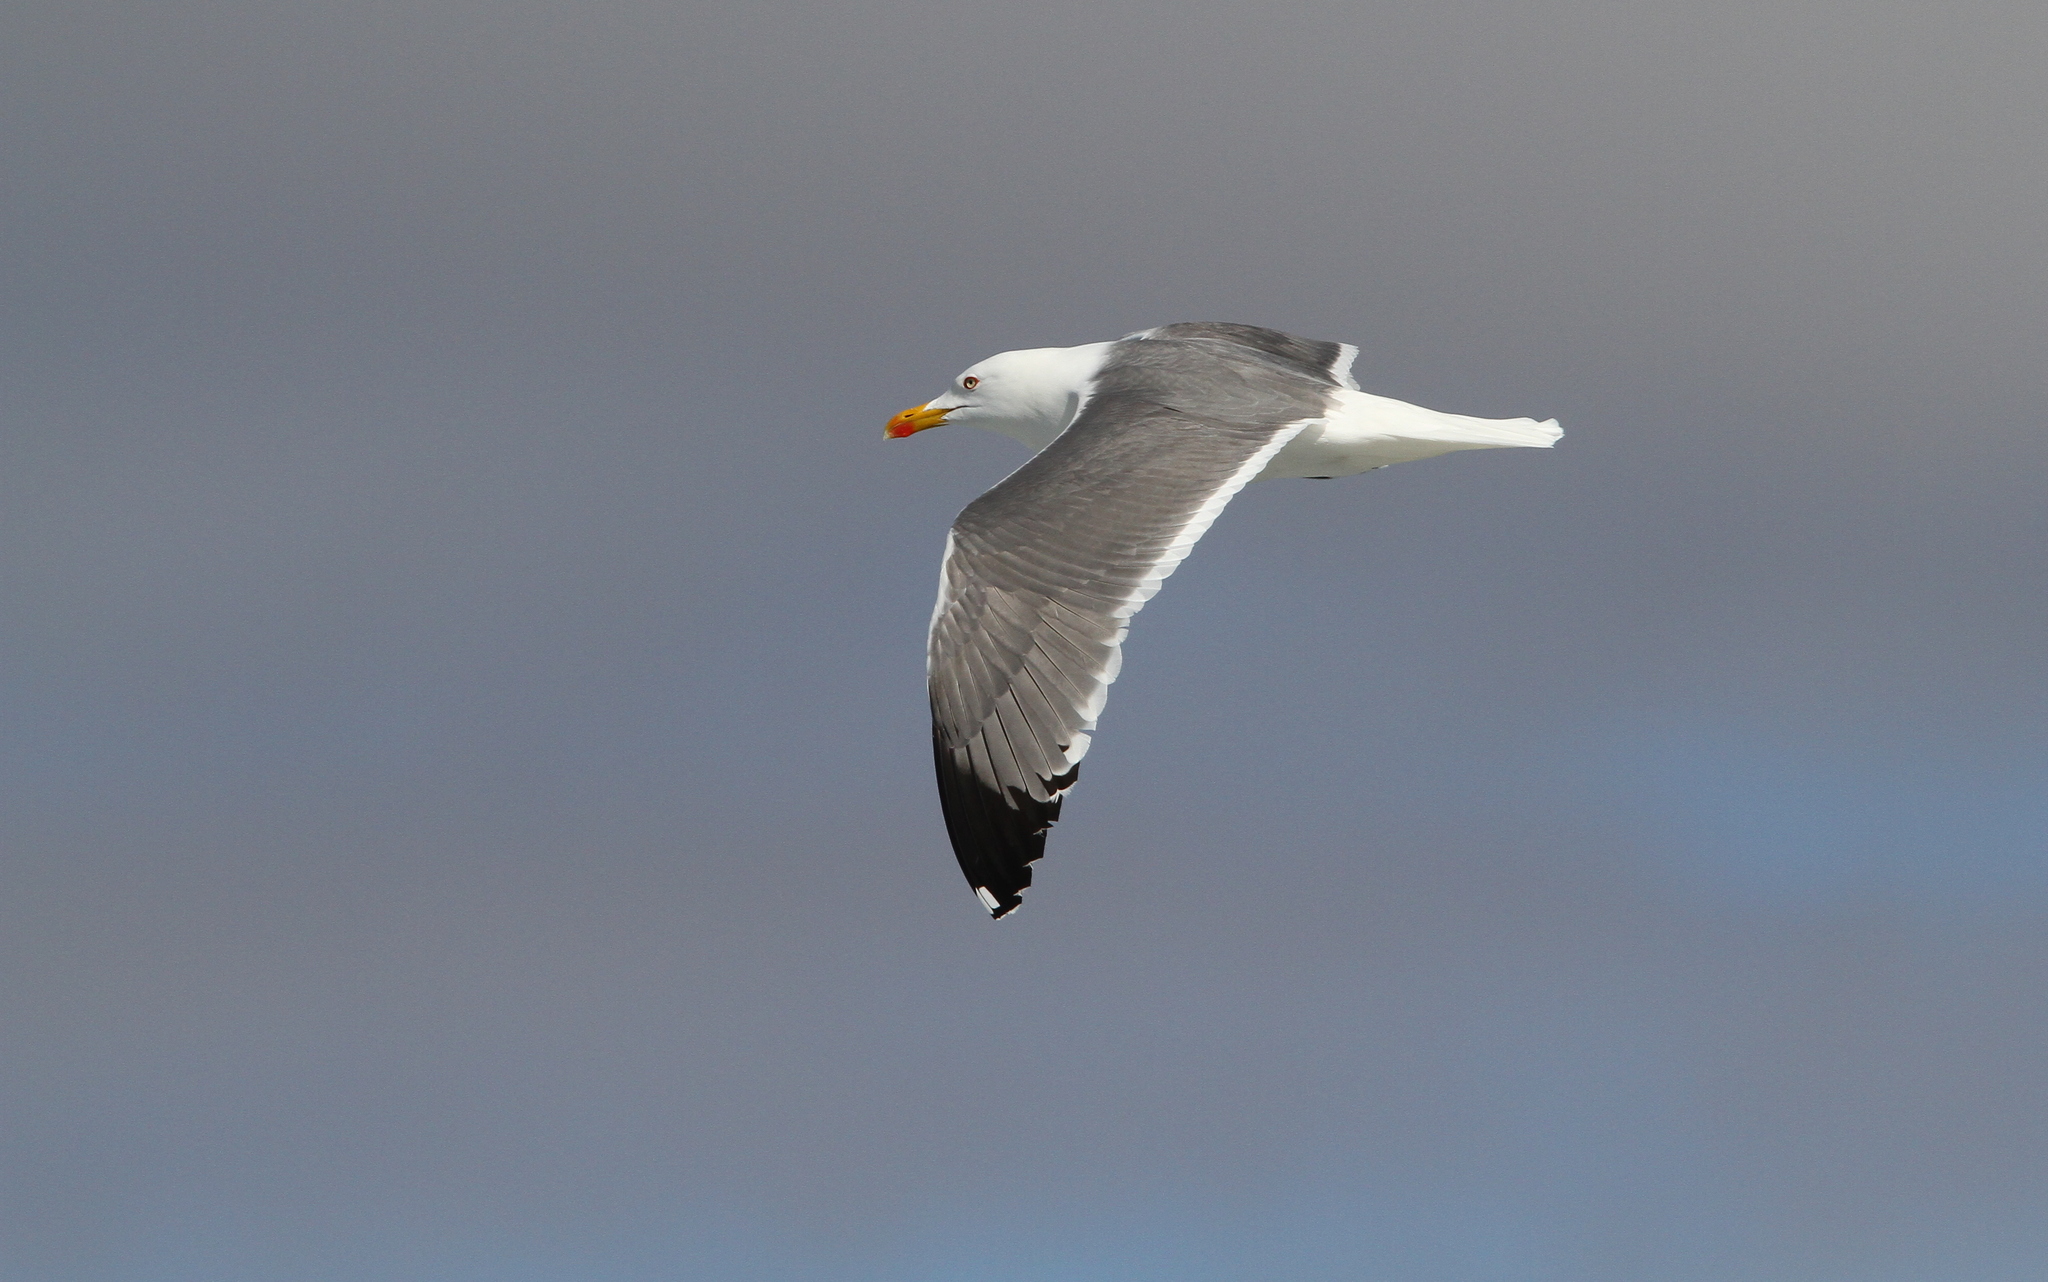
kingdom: Animalia
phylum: Chordata
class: Aves
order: Charadriiformes
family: Laridae
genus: Larus
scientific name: Larus michahellis
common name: Yellow-legged gull
